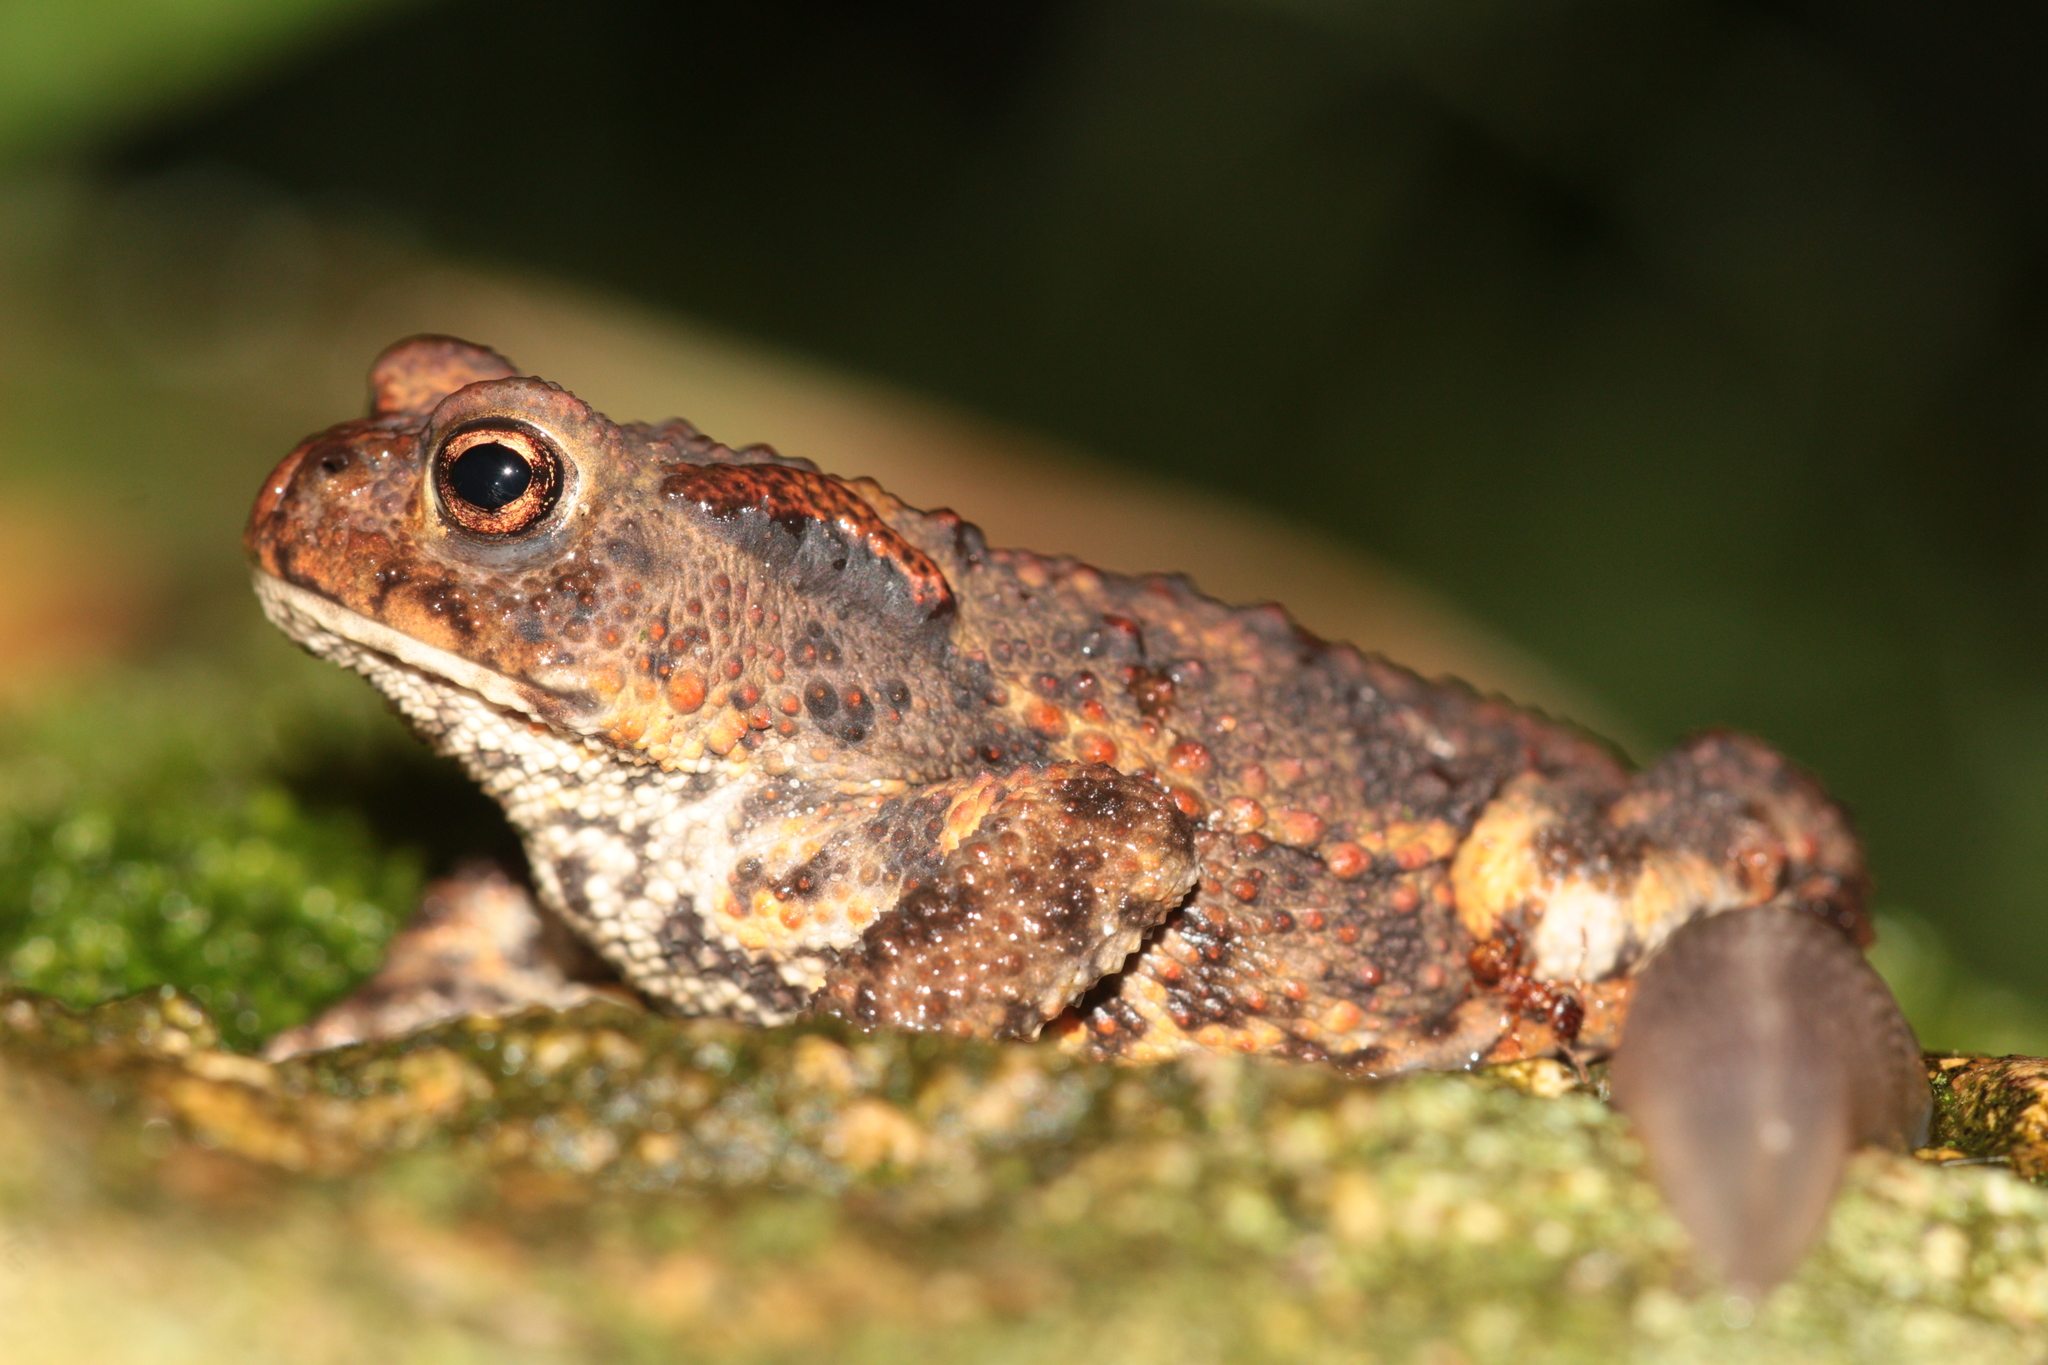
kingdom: Animalia
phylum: Chordata
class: Amphibia
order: Anura
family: Bufonidae
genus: Bufo
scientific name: Bufo bufo
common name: Common toad
